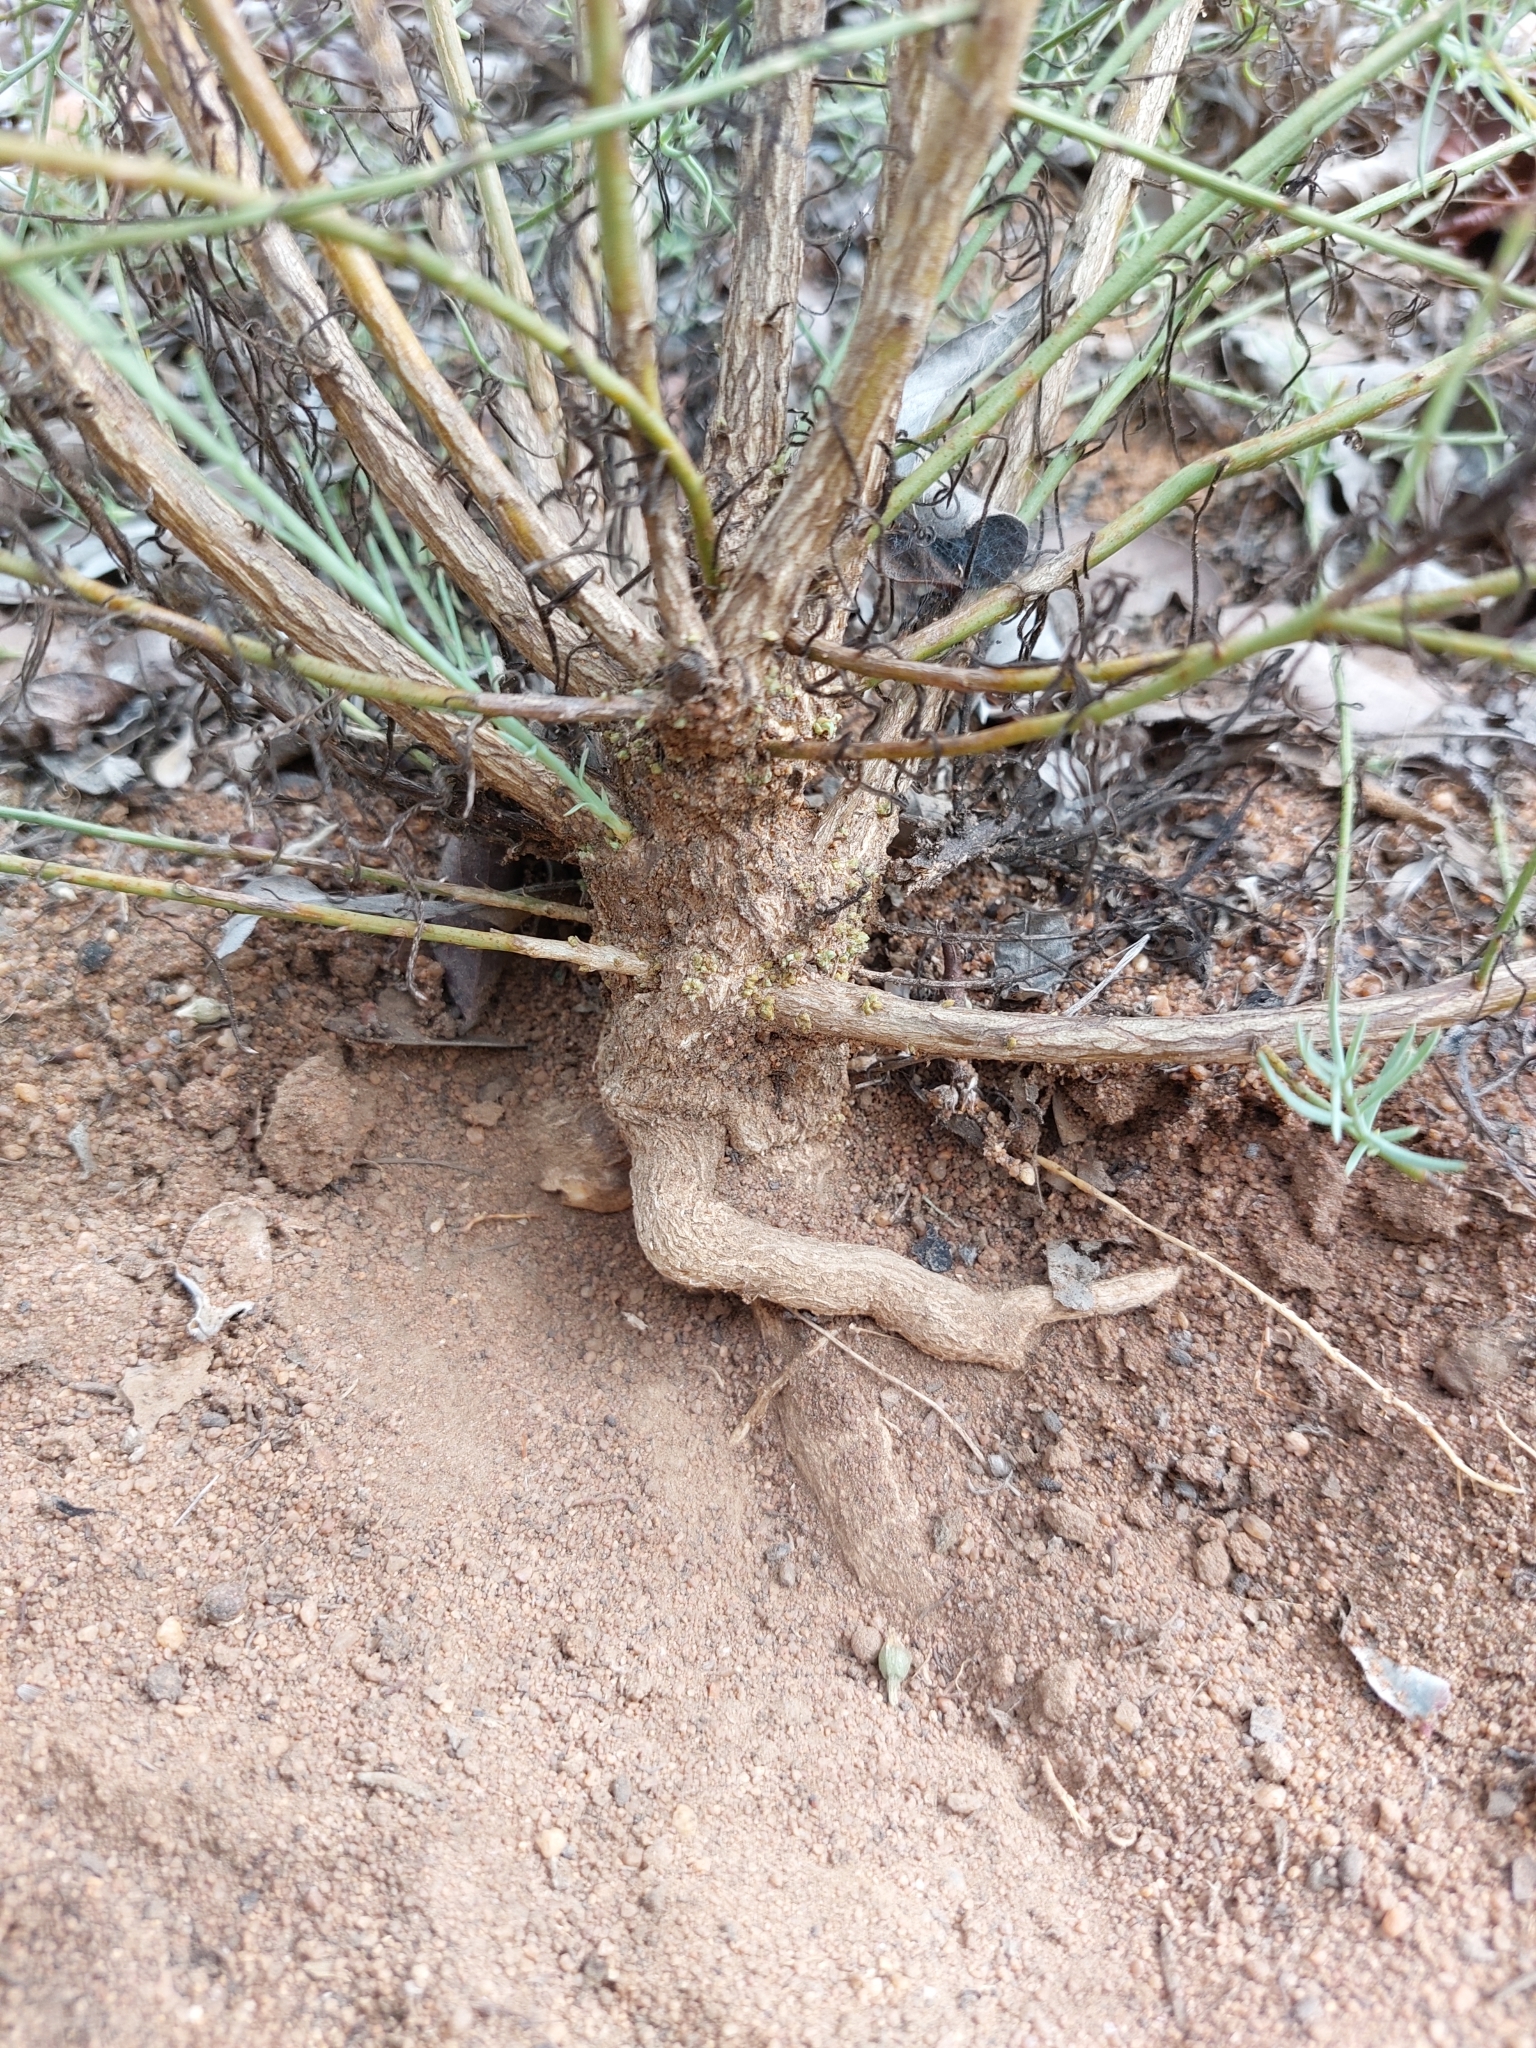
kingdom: Plantae
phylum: Tracheophyta
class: Magnoliopsida
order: Santalales
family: Thesiaceae
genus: Thesium
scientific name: Thesium celatum
